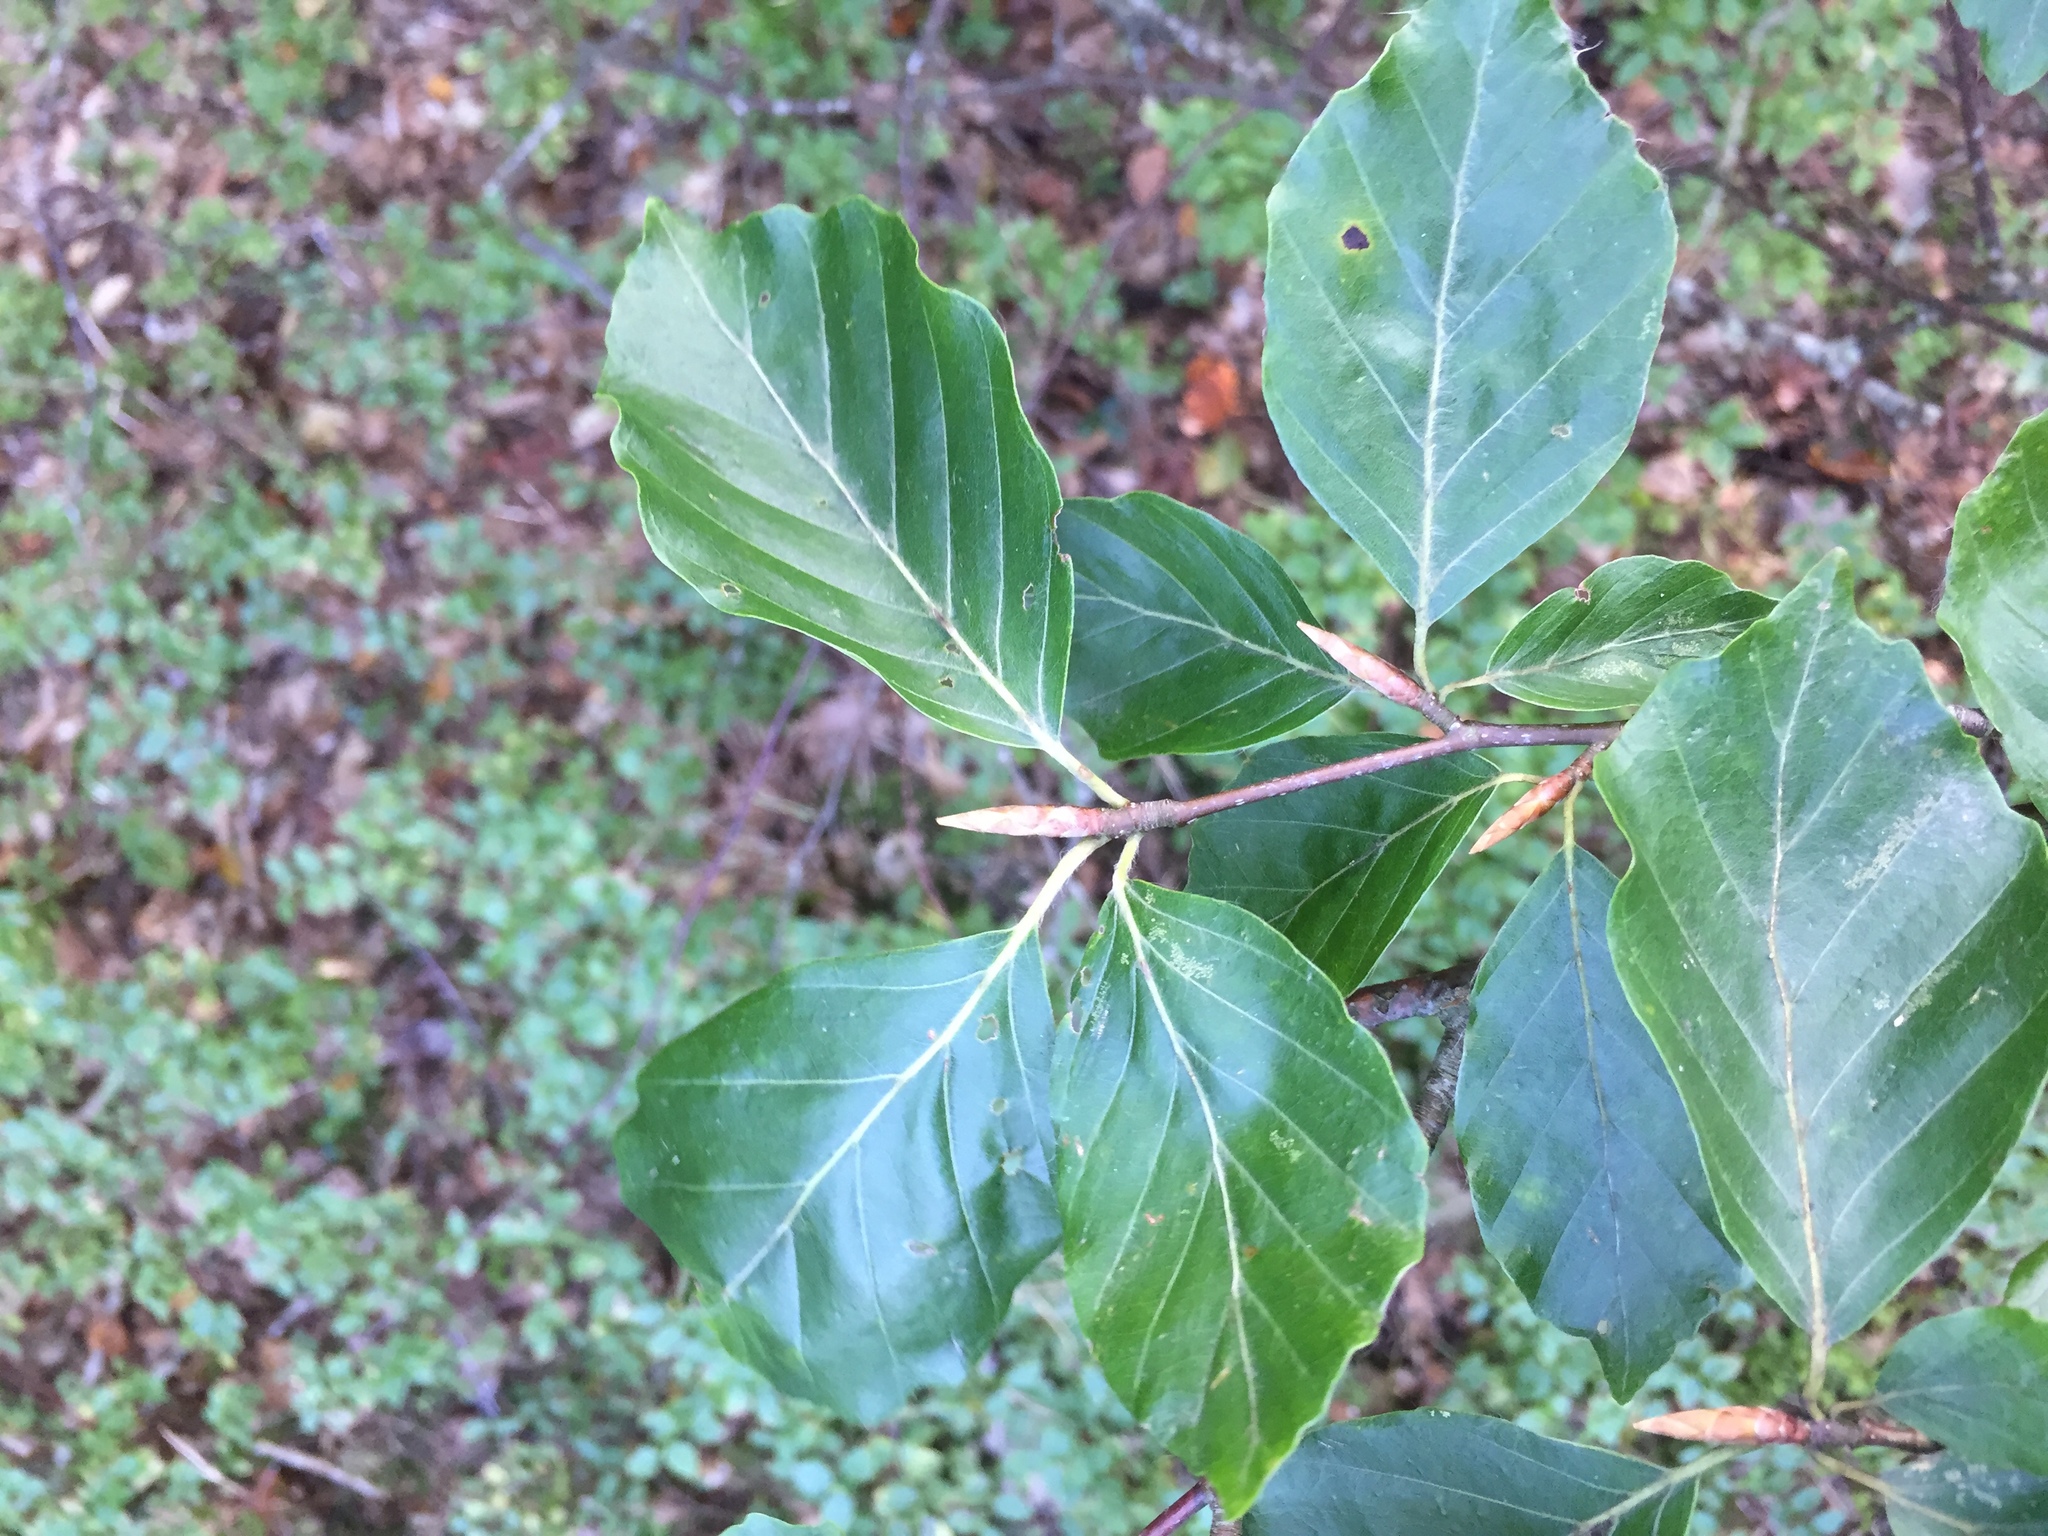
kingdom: Plantae
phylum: Tracheophyta
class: Magnoliopsida
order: Fagales
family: Fagaceae
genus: Fagus
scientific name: Fagus sylvatica
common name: Beech
